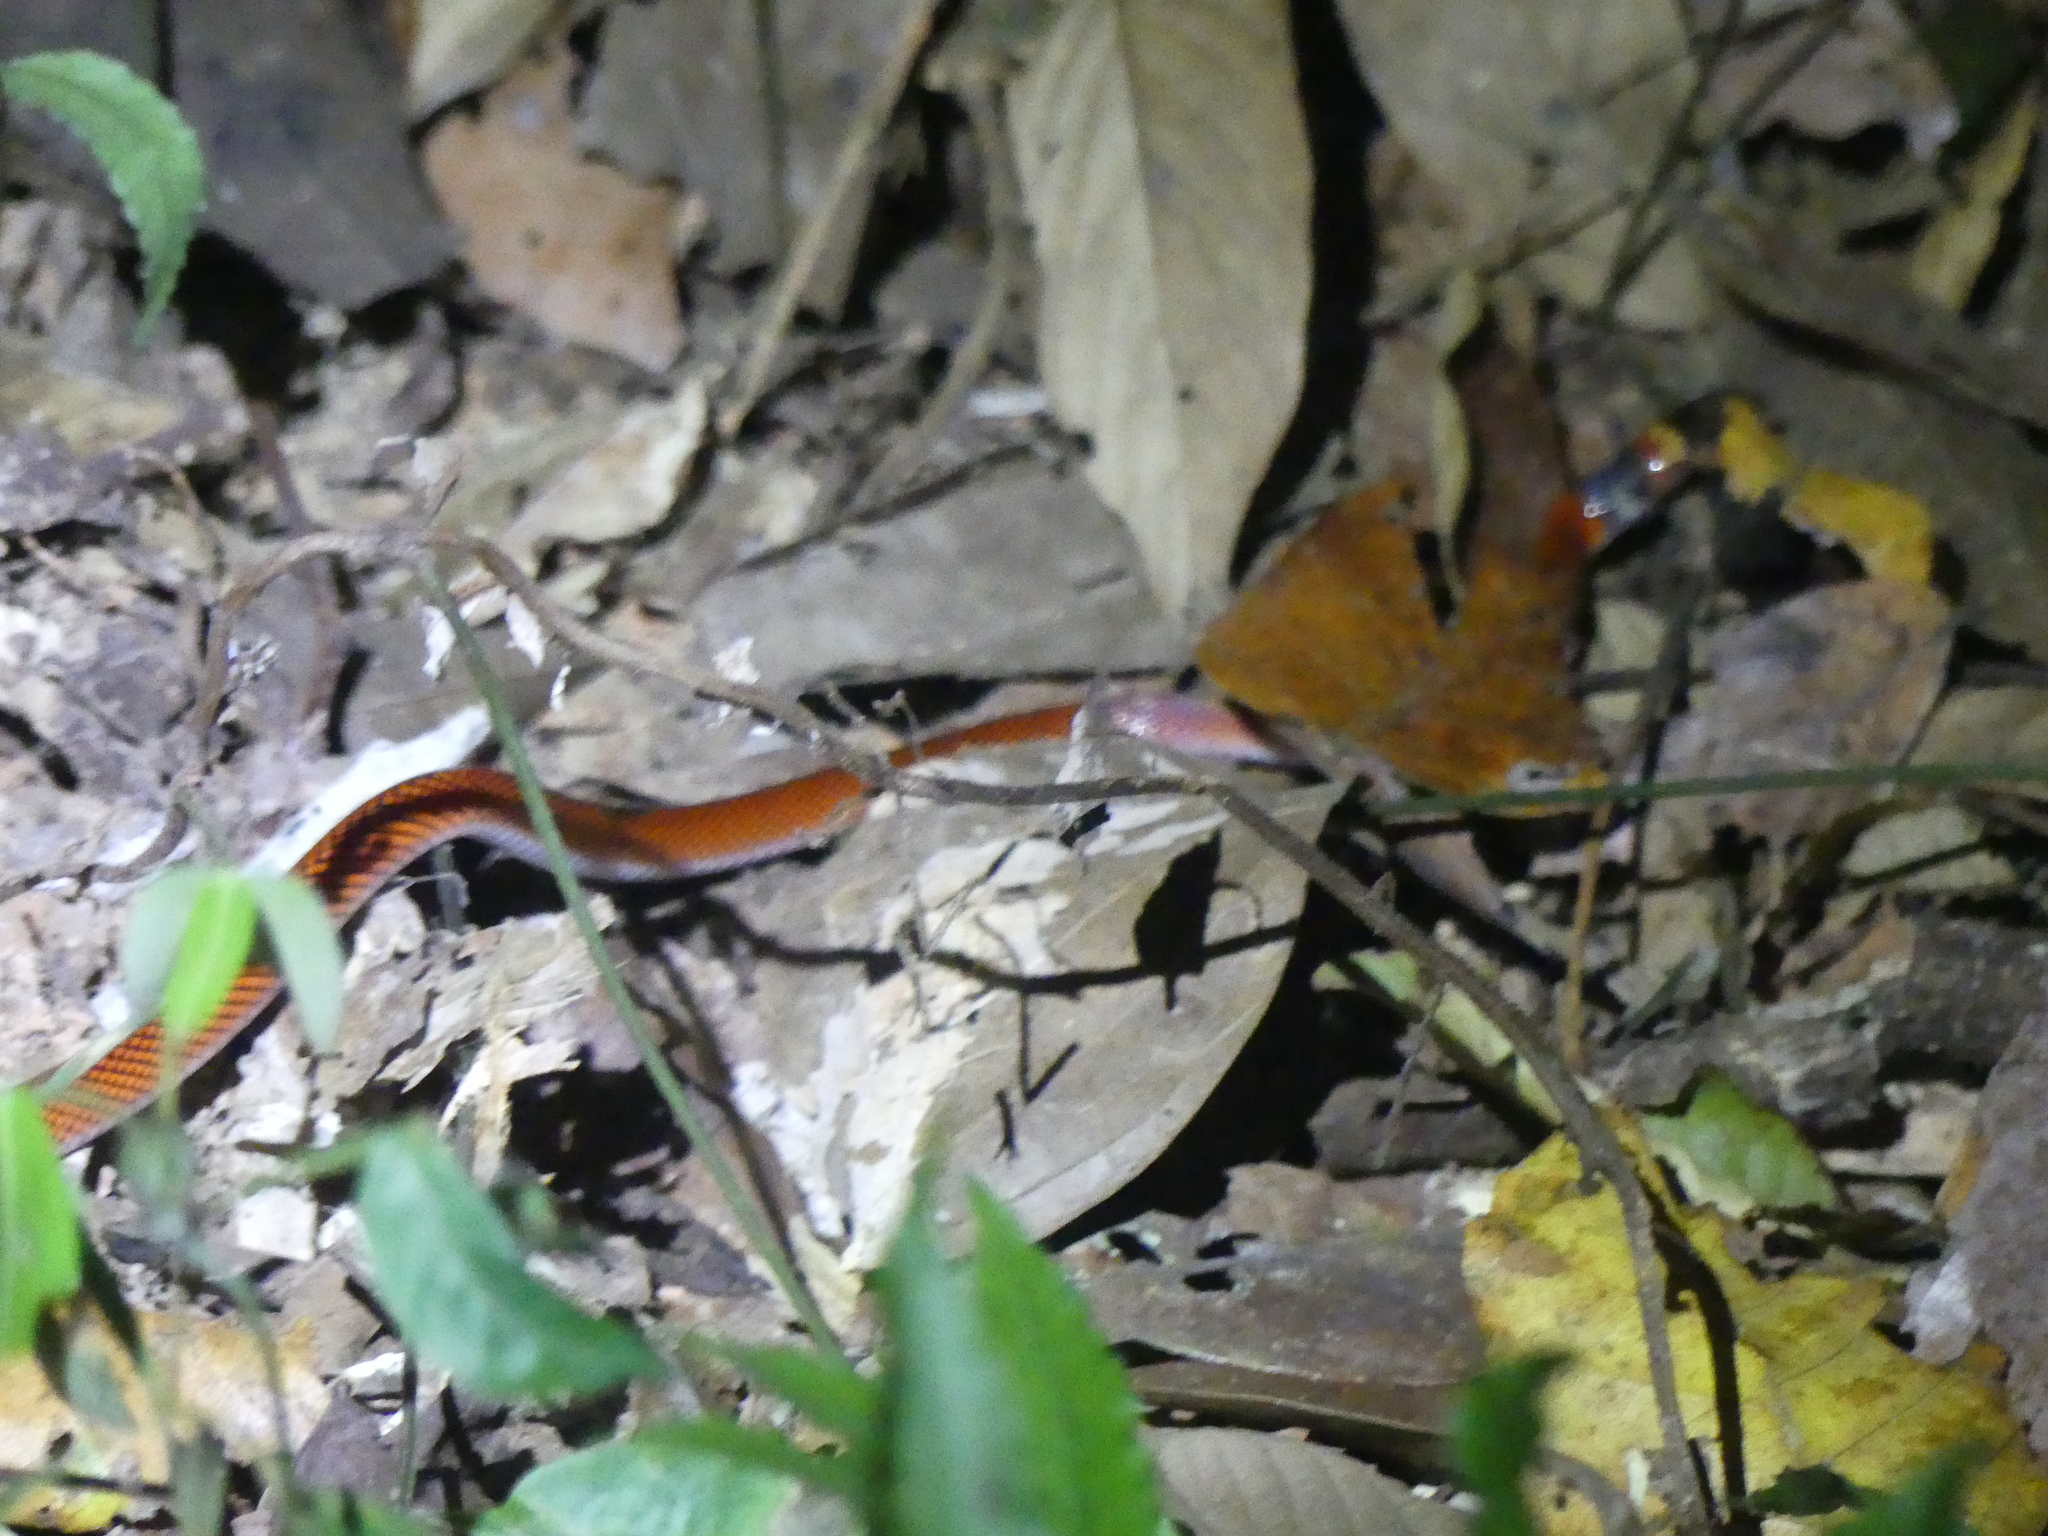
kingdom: Animalia
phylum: Chordata
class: Squamata
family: Colubridae
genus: Oxyrhopus
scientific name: Oxyrhopus melanogenys
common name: Tschudi's false coral snake
